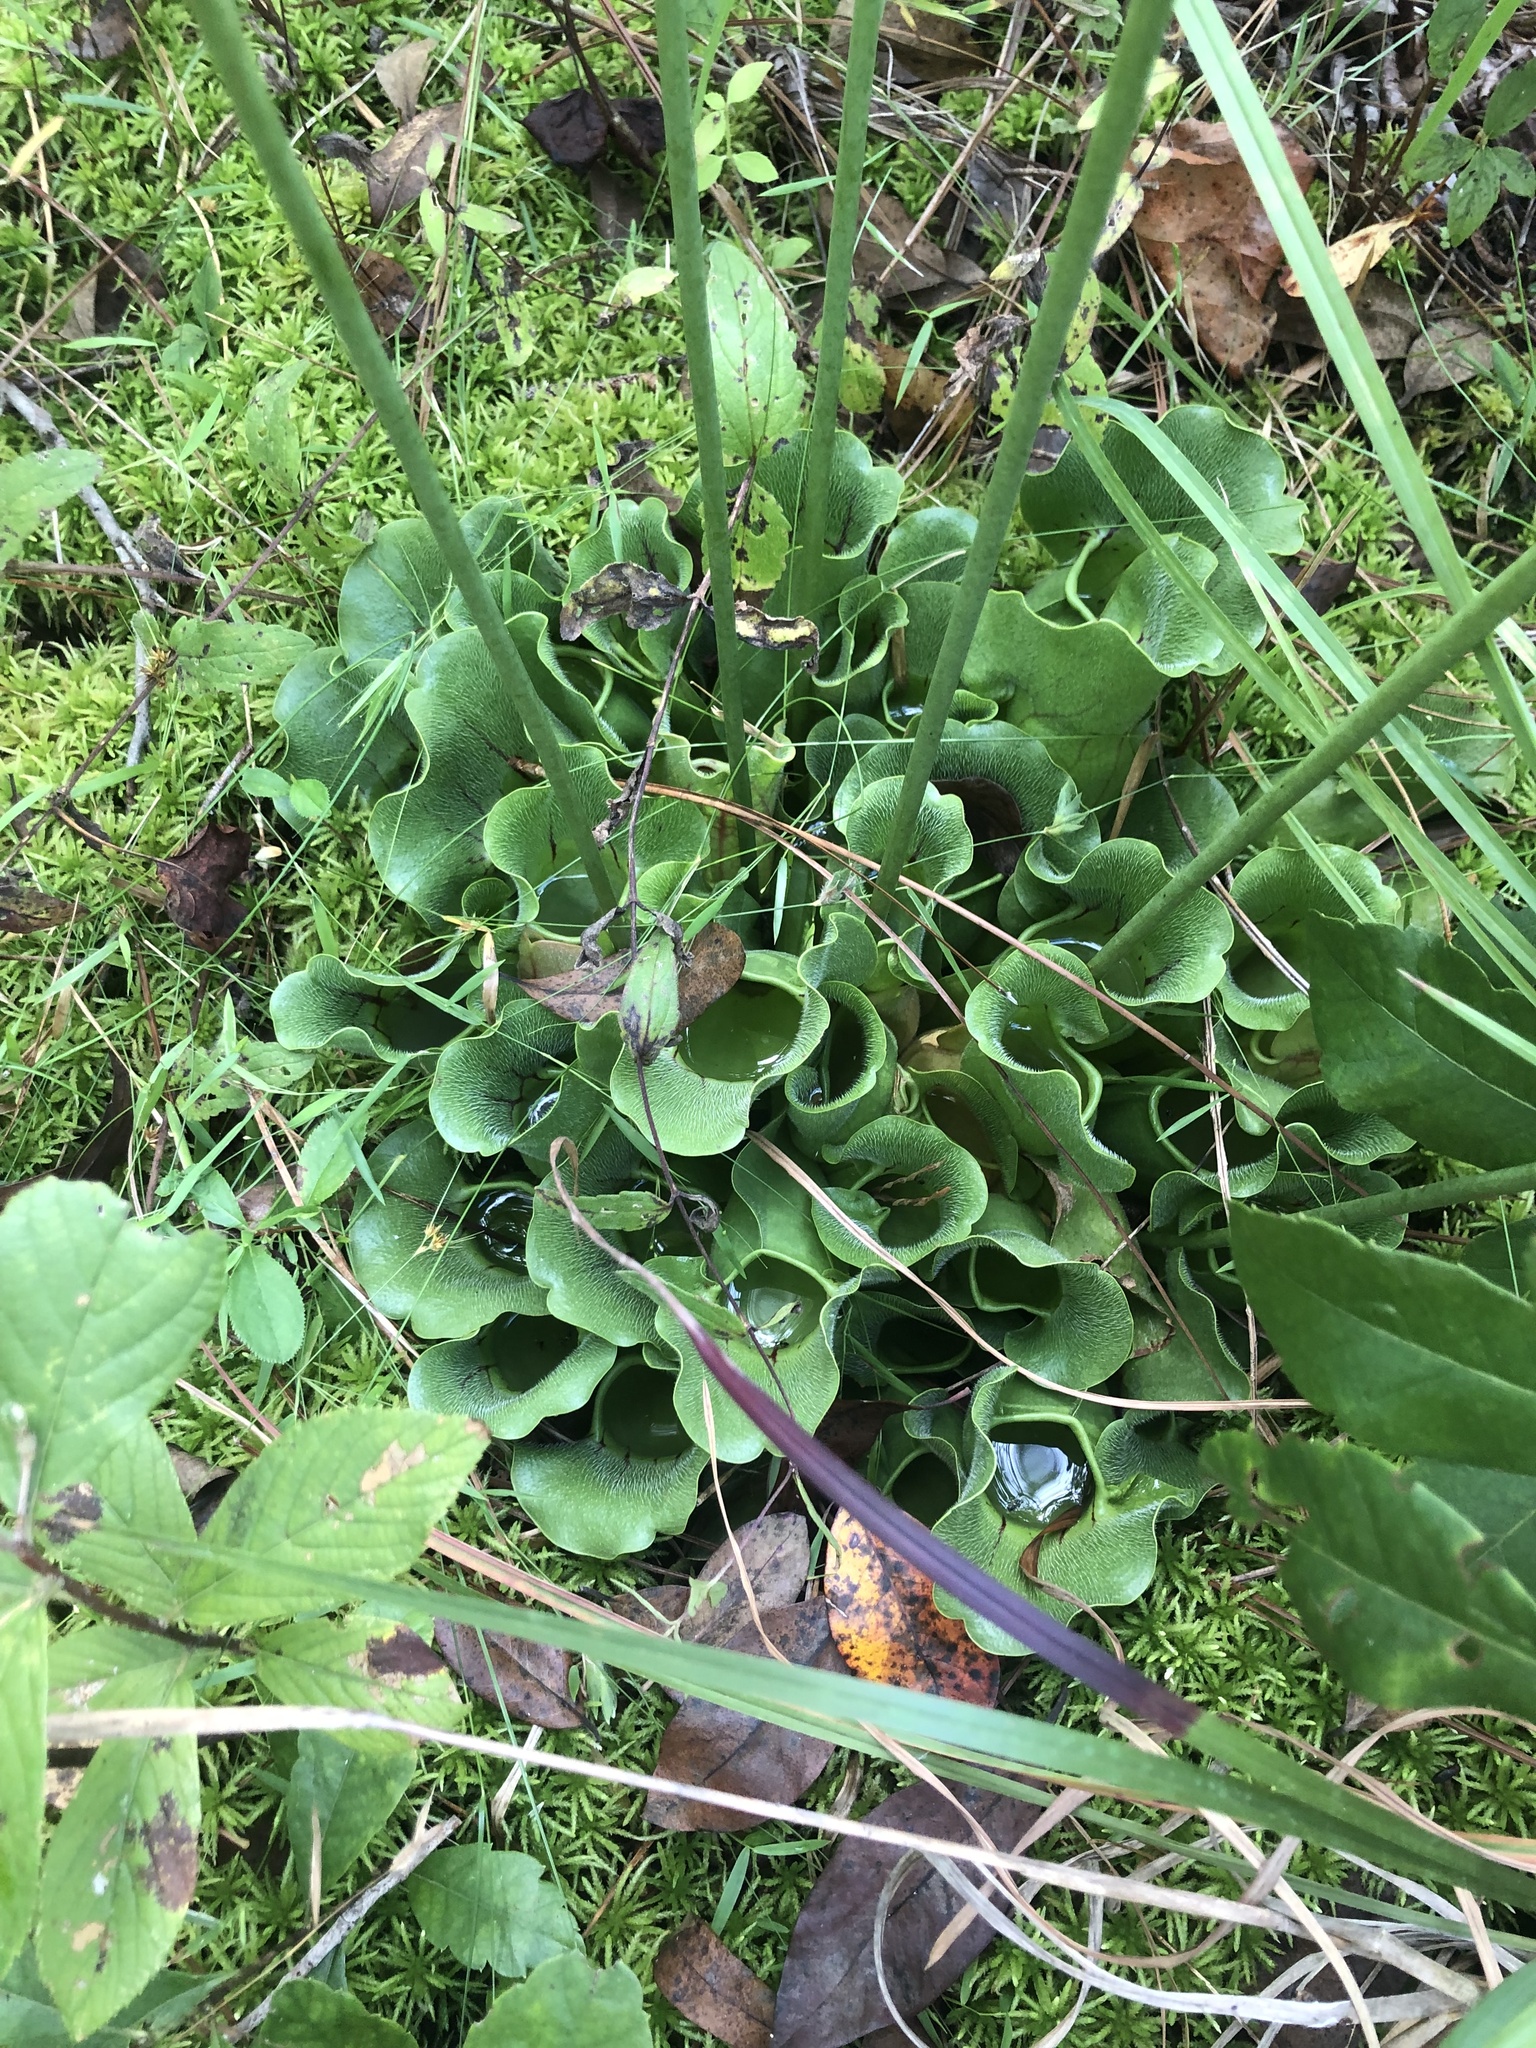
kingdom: Plantae
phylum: Tracheophyta
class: Magnoliopsida
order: Ericales
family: Sarraceniaceae
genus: Sarracenia
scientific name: Sarracenia purpurea
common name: Pitcherplant
